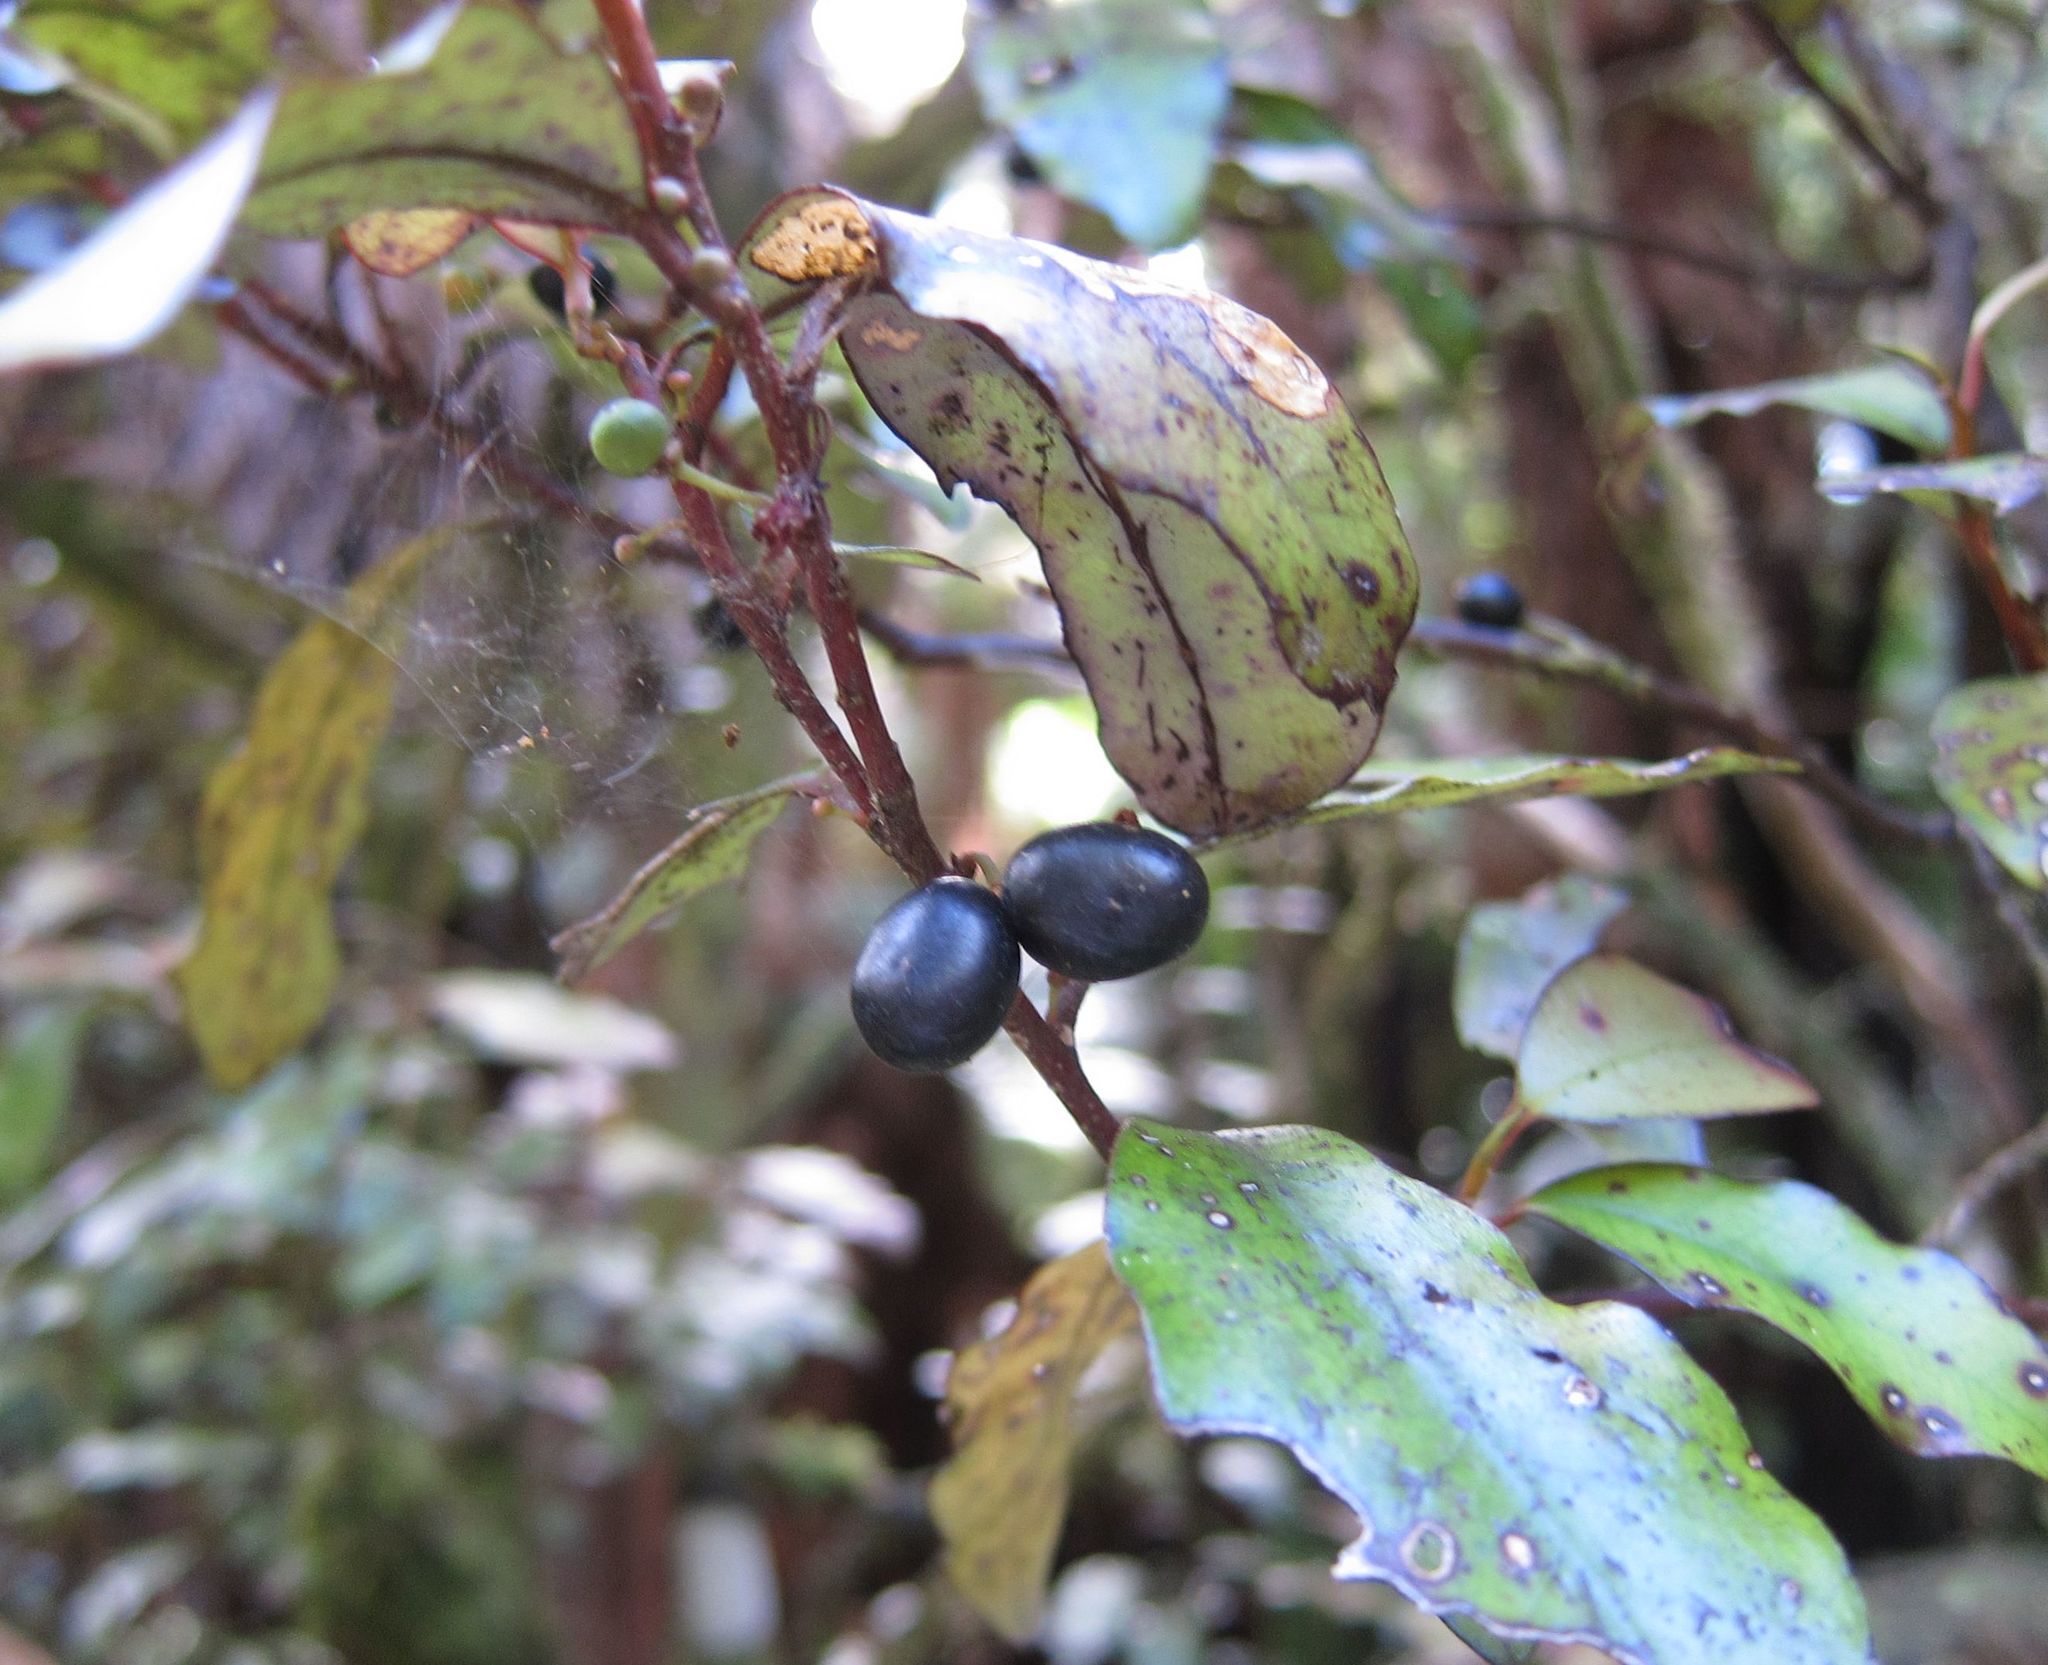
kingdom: Plantae
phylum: Tracheophyta
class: Magnoliopsida
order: Canellales
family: Winteraceae
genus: Pseudowintera
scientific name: Pseudowintera colorata
